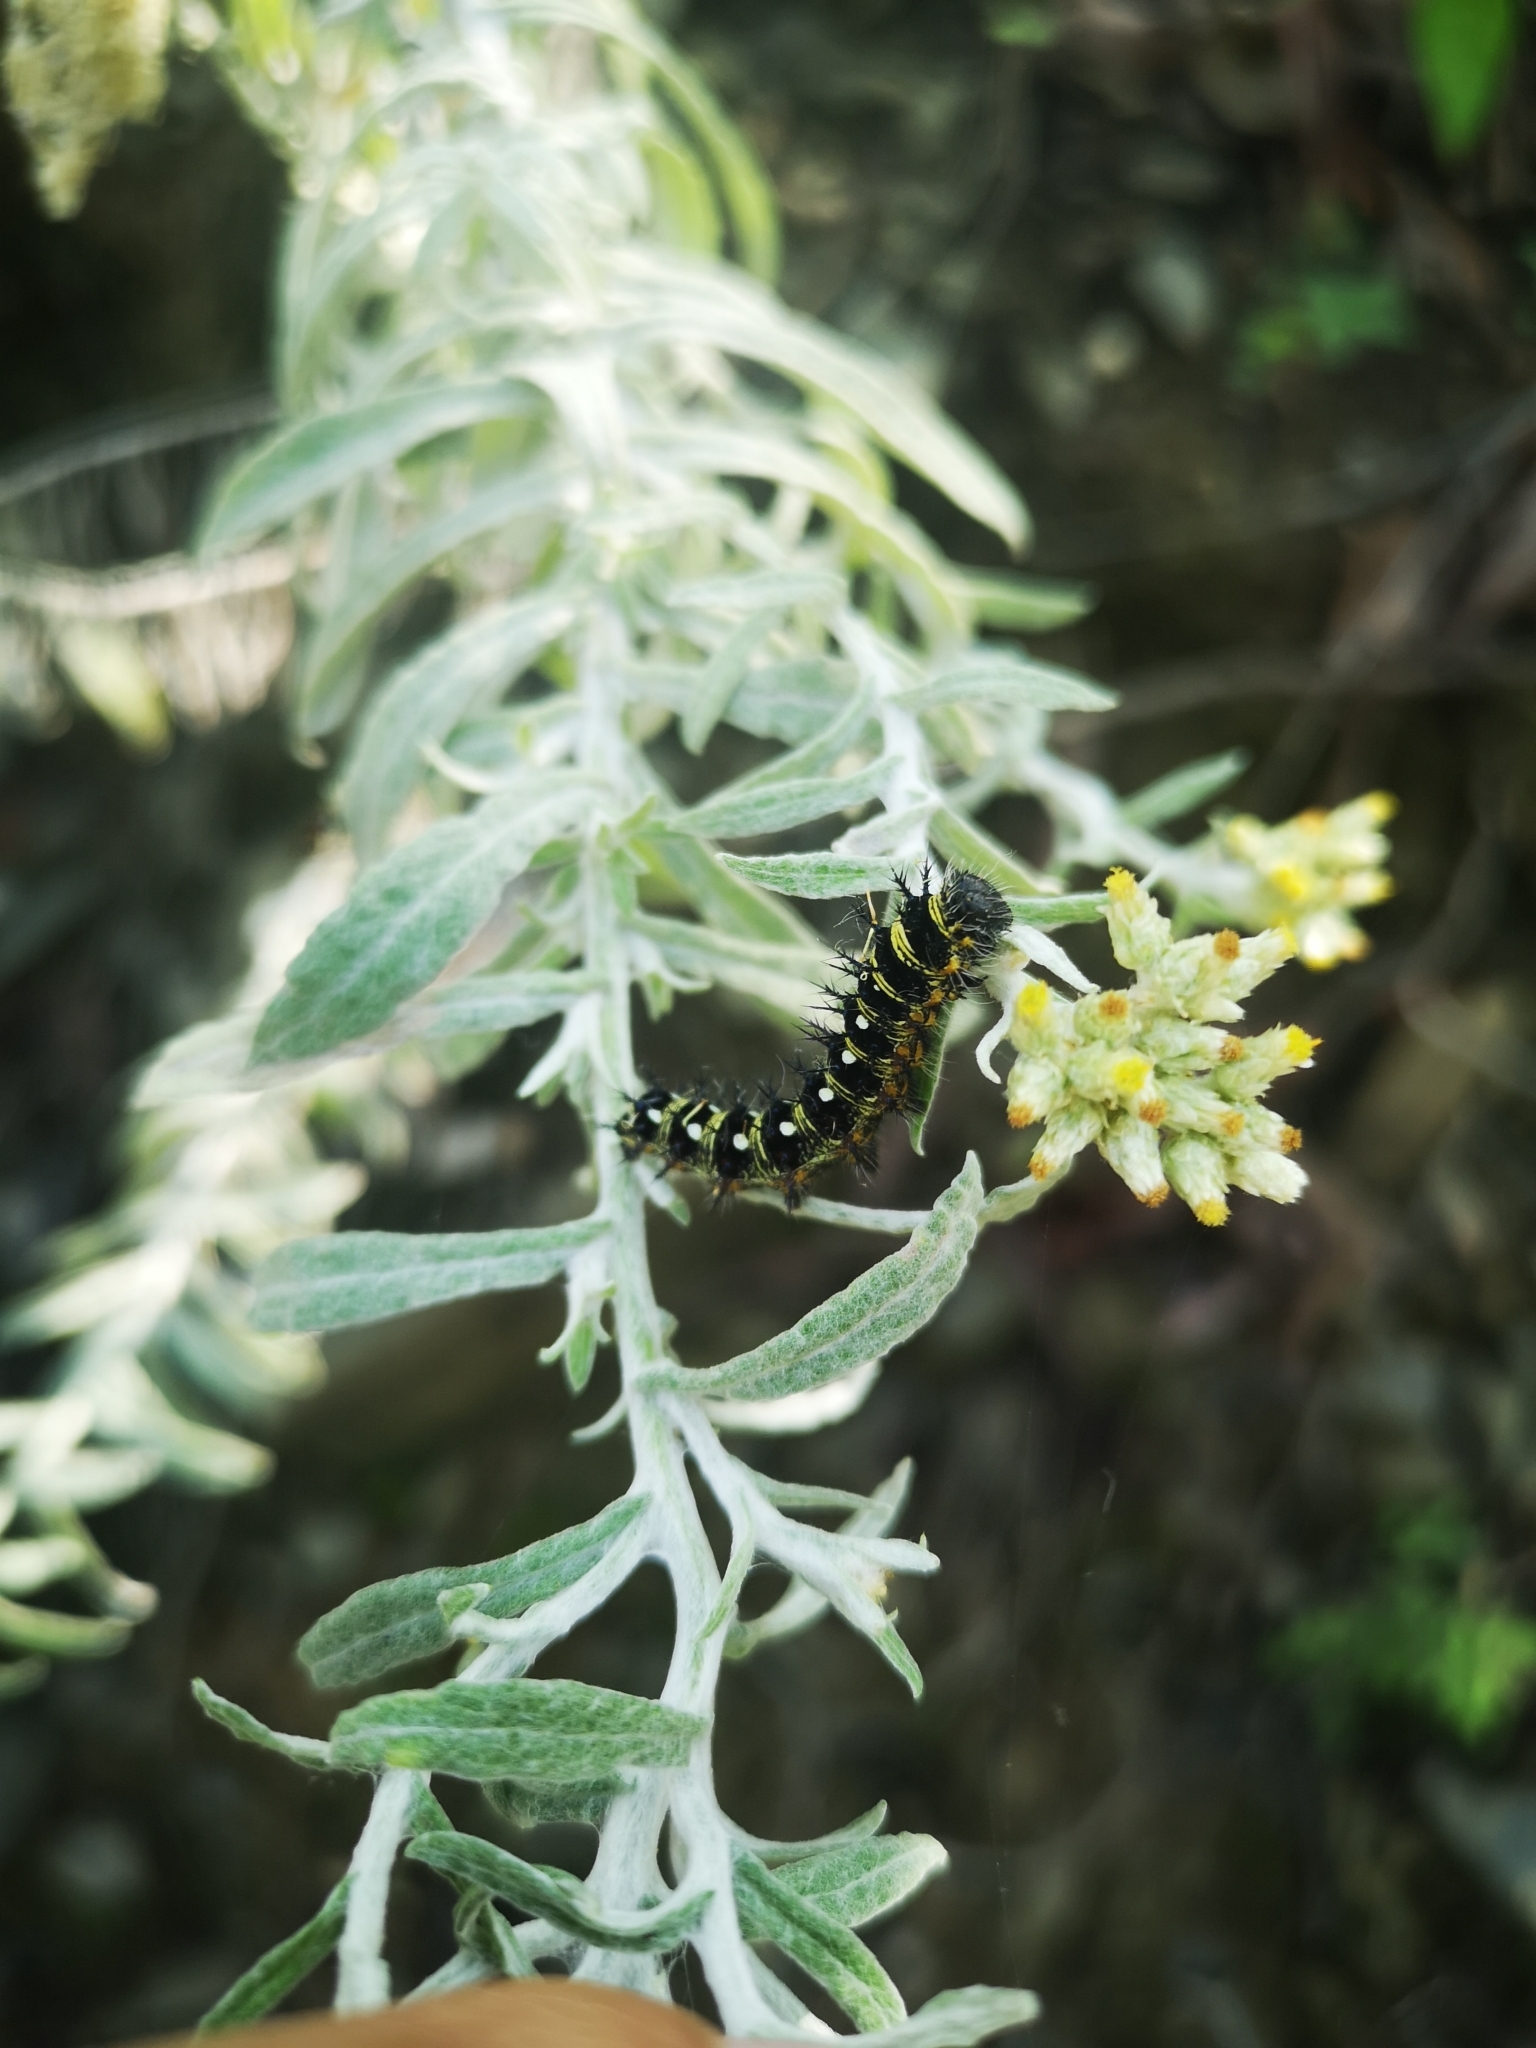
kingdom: Animalia
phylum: Arthropoda
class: Insecta
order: Lepidoptera
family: Nymphalidae
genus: Vanessa
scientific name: Vanessa virginiensis
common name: American lady
